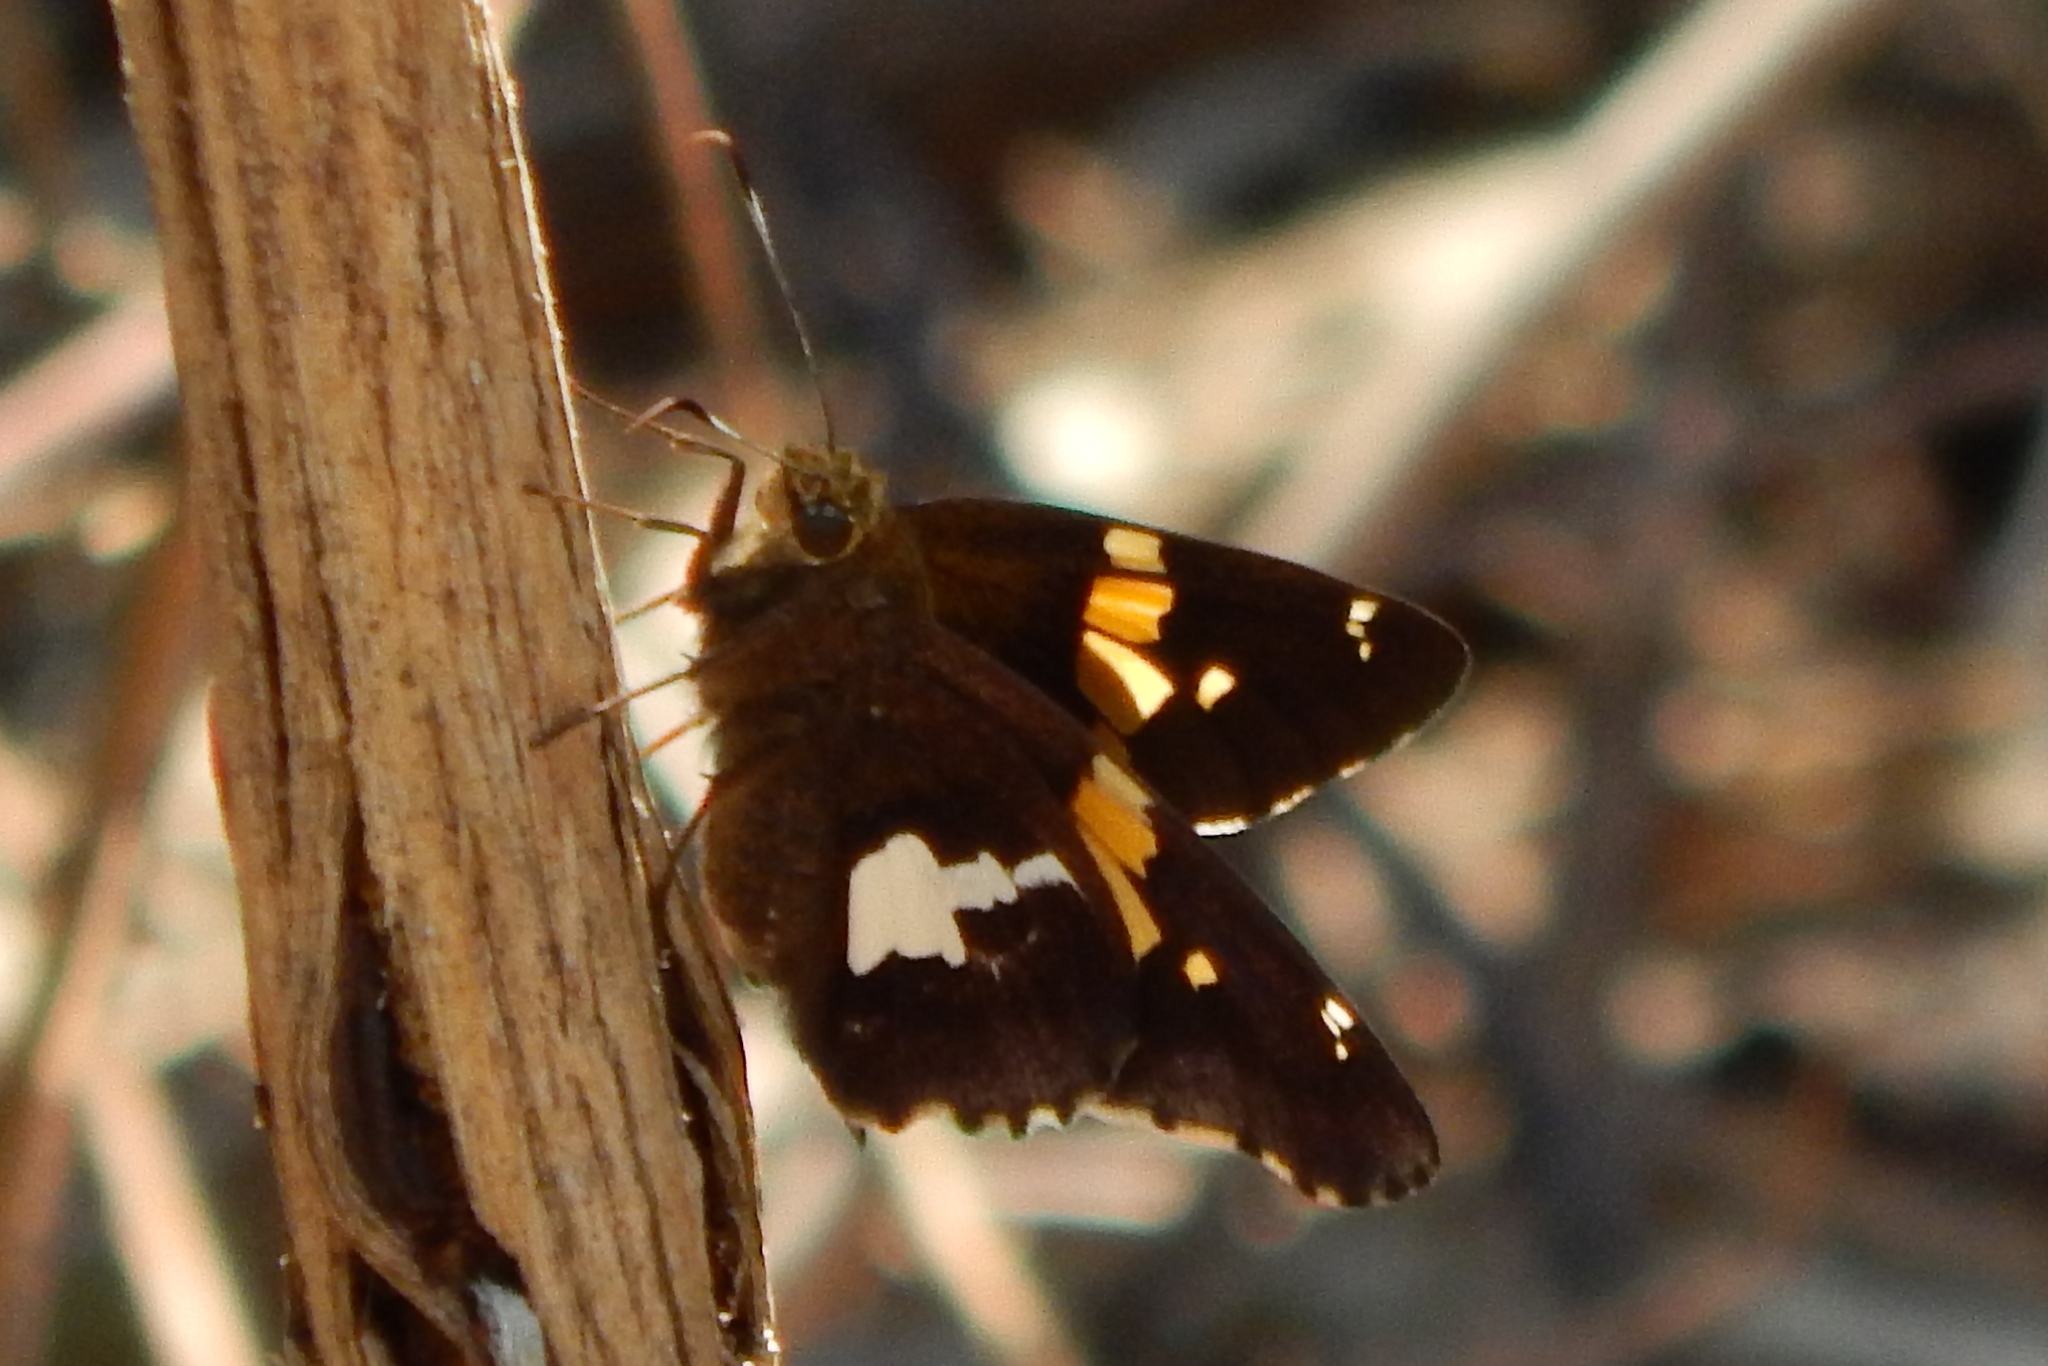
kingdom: Animalia
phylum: Arthropoda
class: Insecta
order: Lepidoptera
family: Hesperiidae
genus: Epargyreus
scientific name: Epargyreus clarus
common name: Silver-spotted skipper
